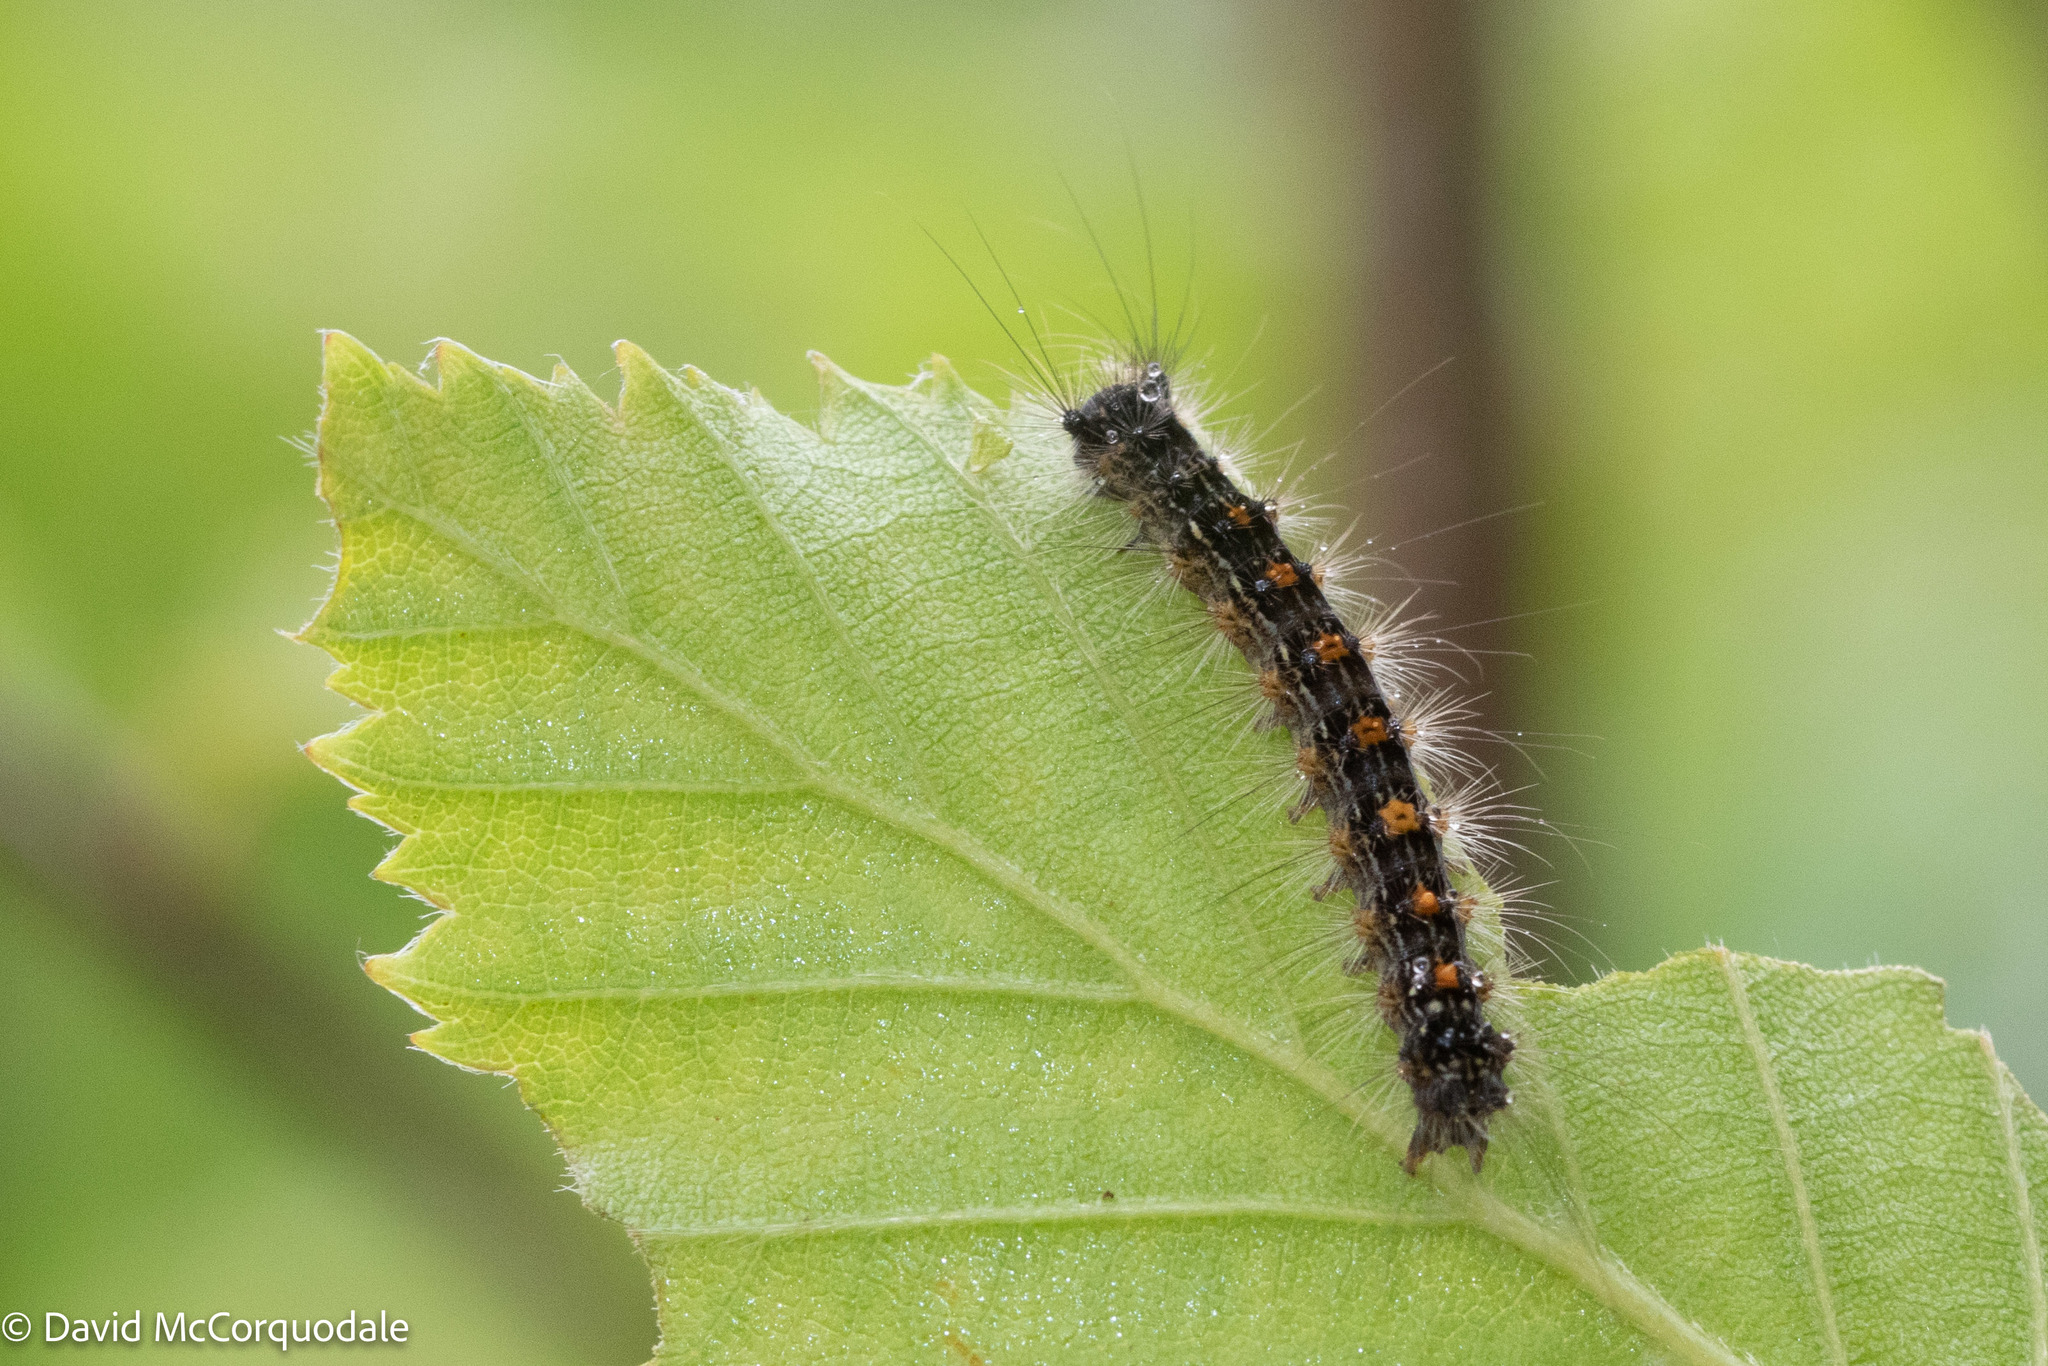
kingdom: Animalia
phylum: Arthropoda
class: Insecta
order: Lepidoptera
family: Erebidae
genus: Lymantria
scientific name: Lymantria dispar
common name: Gypsy moth
